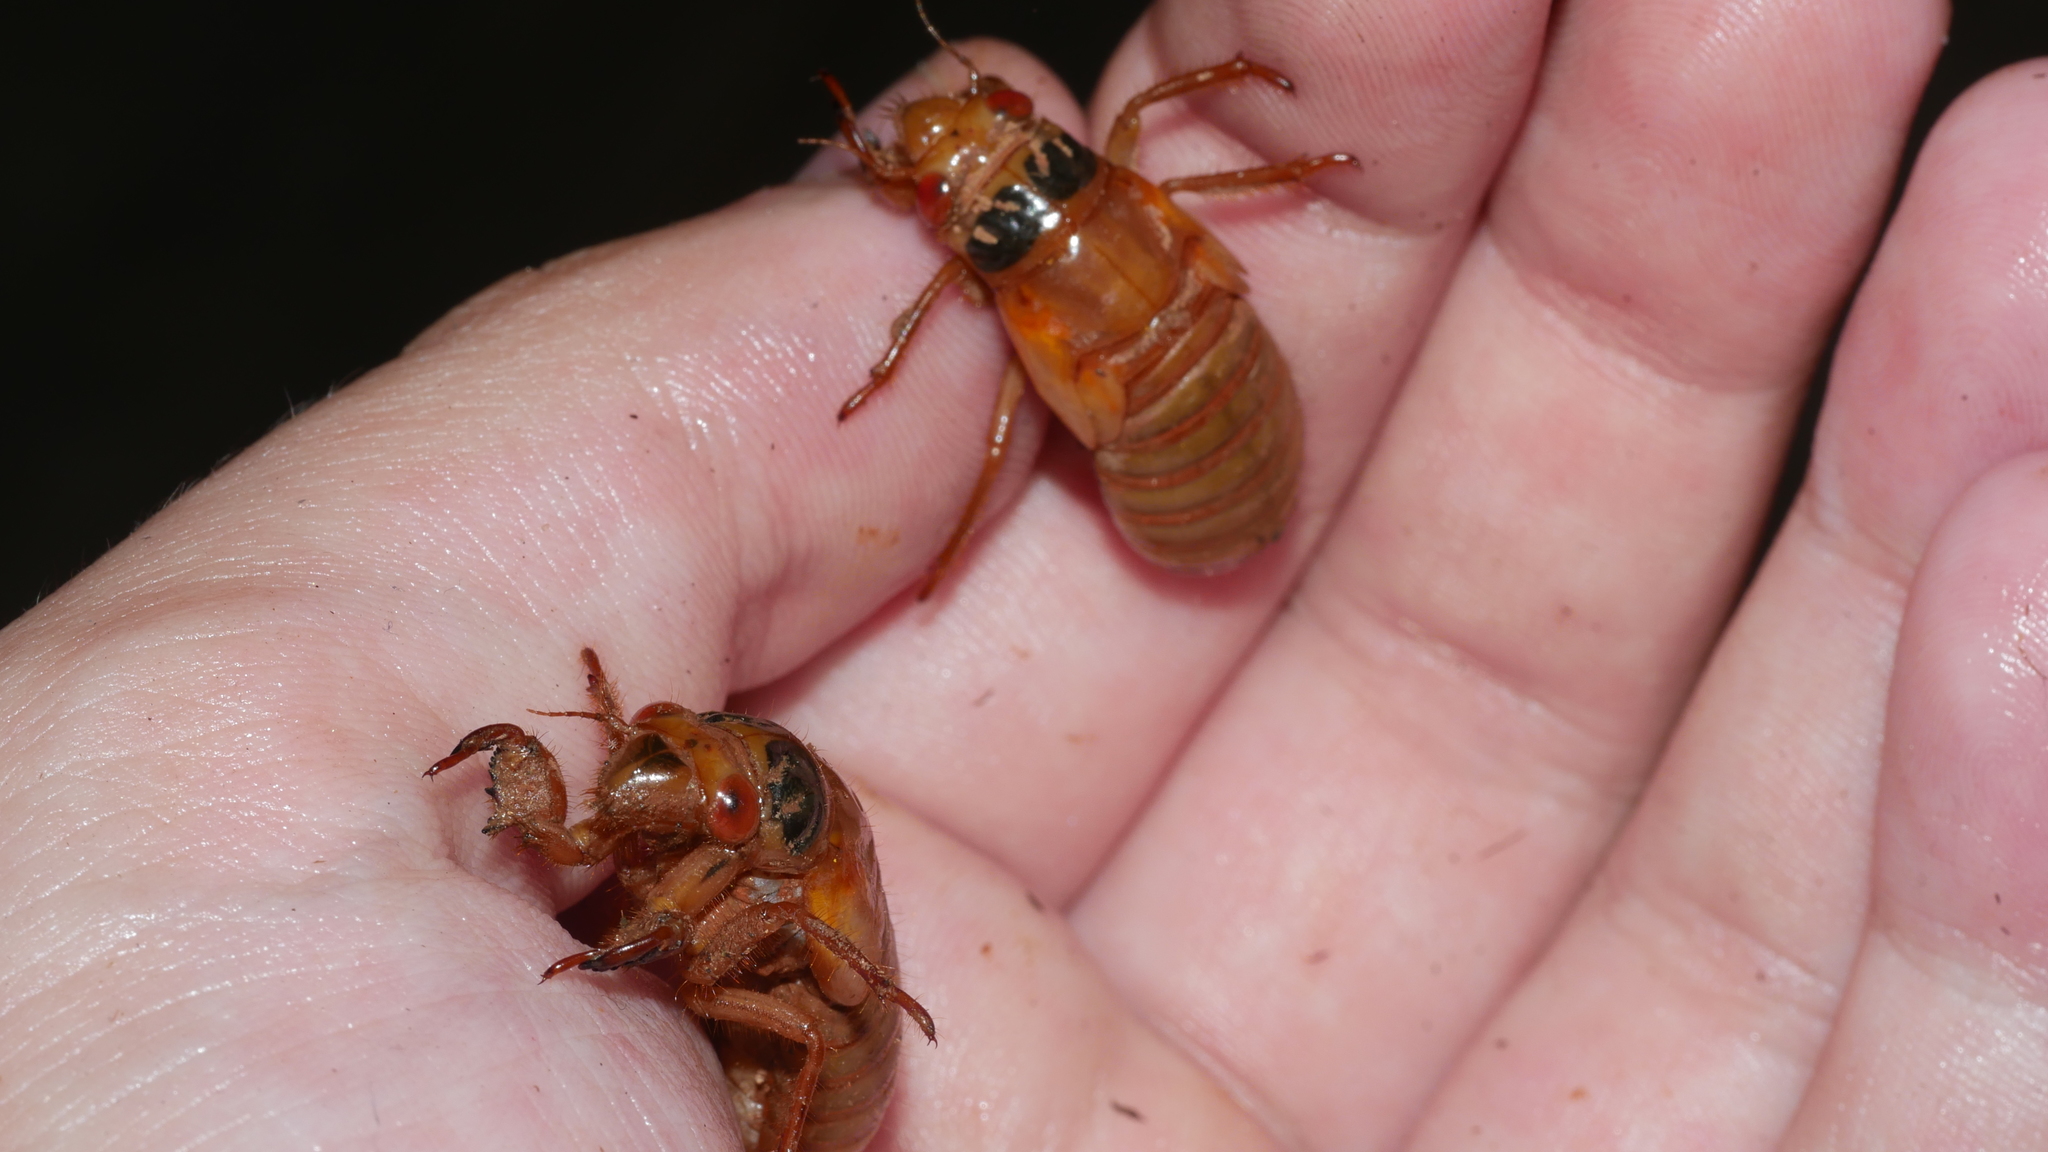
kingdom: Animalia
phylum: Arthropoda
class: Insecta
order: Hemiptera
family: Cicadidae
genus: Magicicada
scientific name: Magicicada
